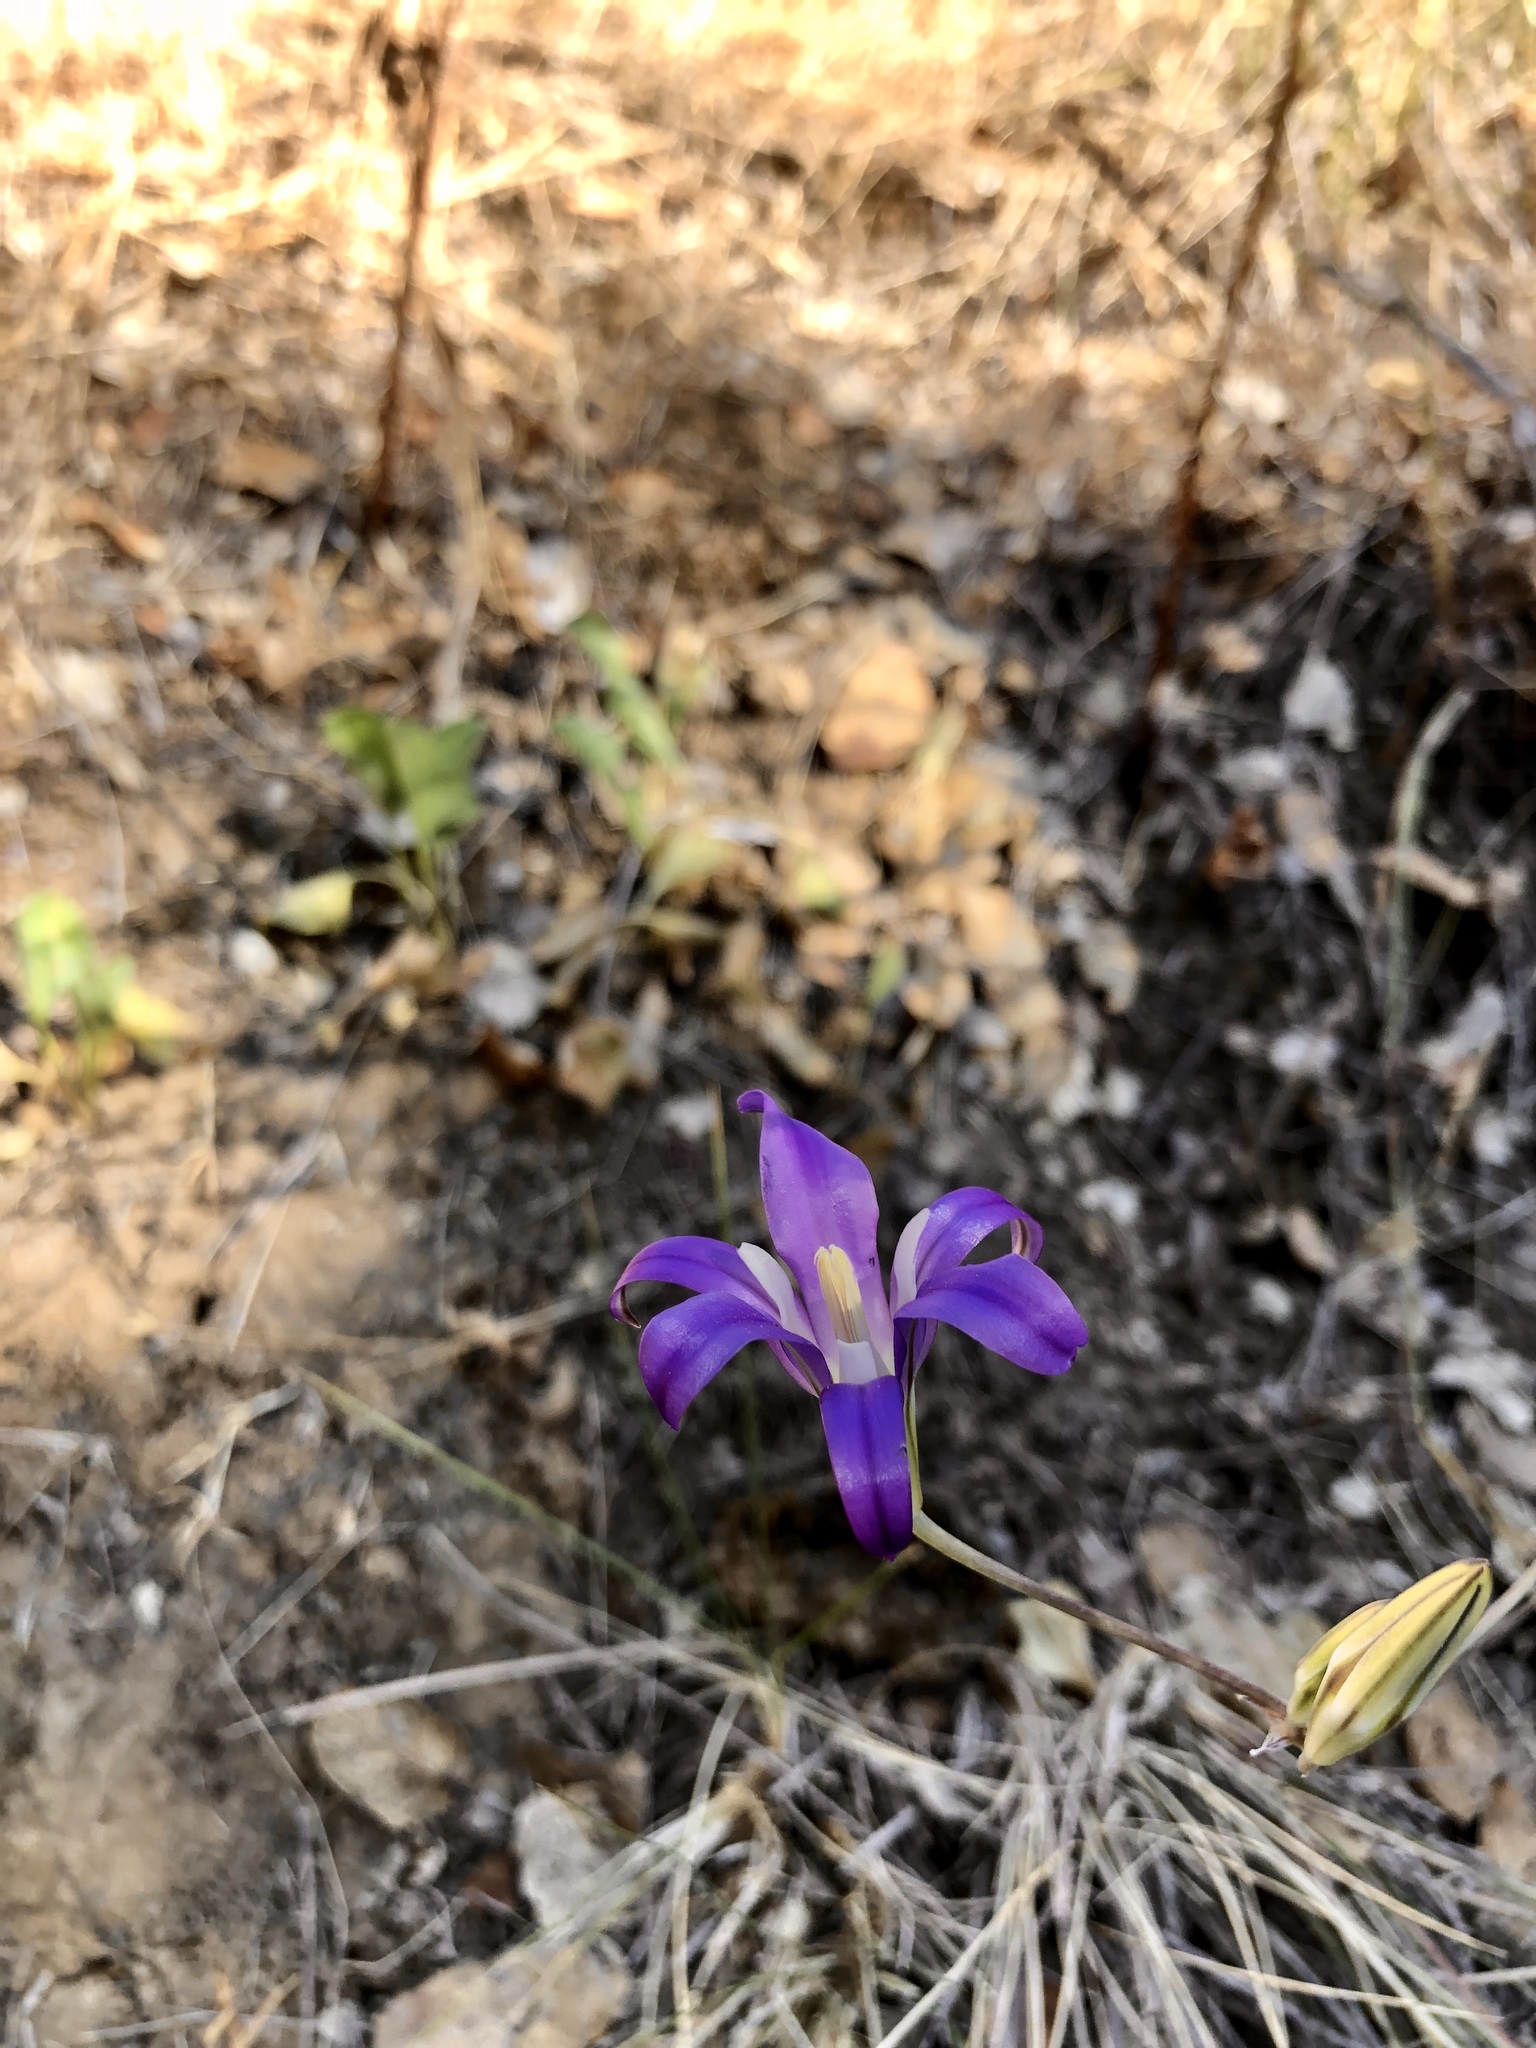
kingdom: Plantae
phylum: Tracheophyta
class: Liliopsida
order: Asparagales
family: Asparagaceae
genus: Brodiaea
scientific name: Brodiaea elegans
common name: Elegant cluster-lily
